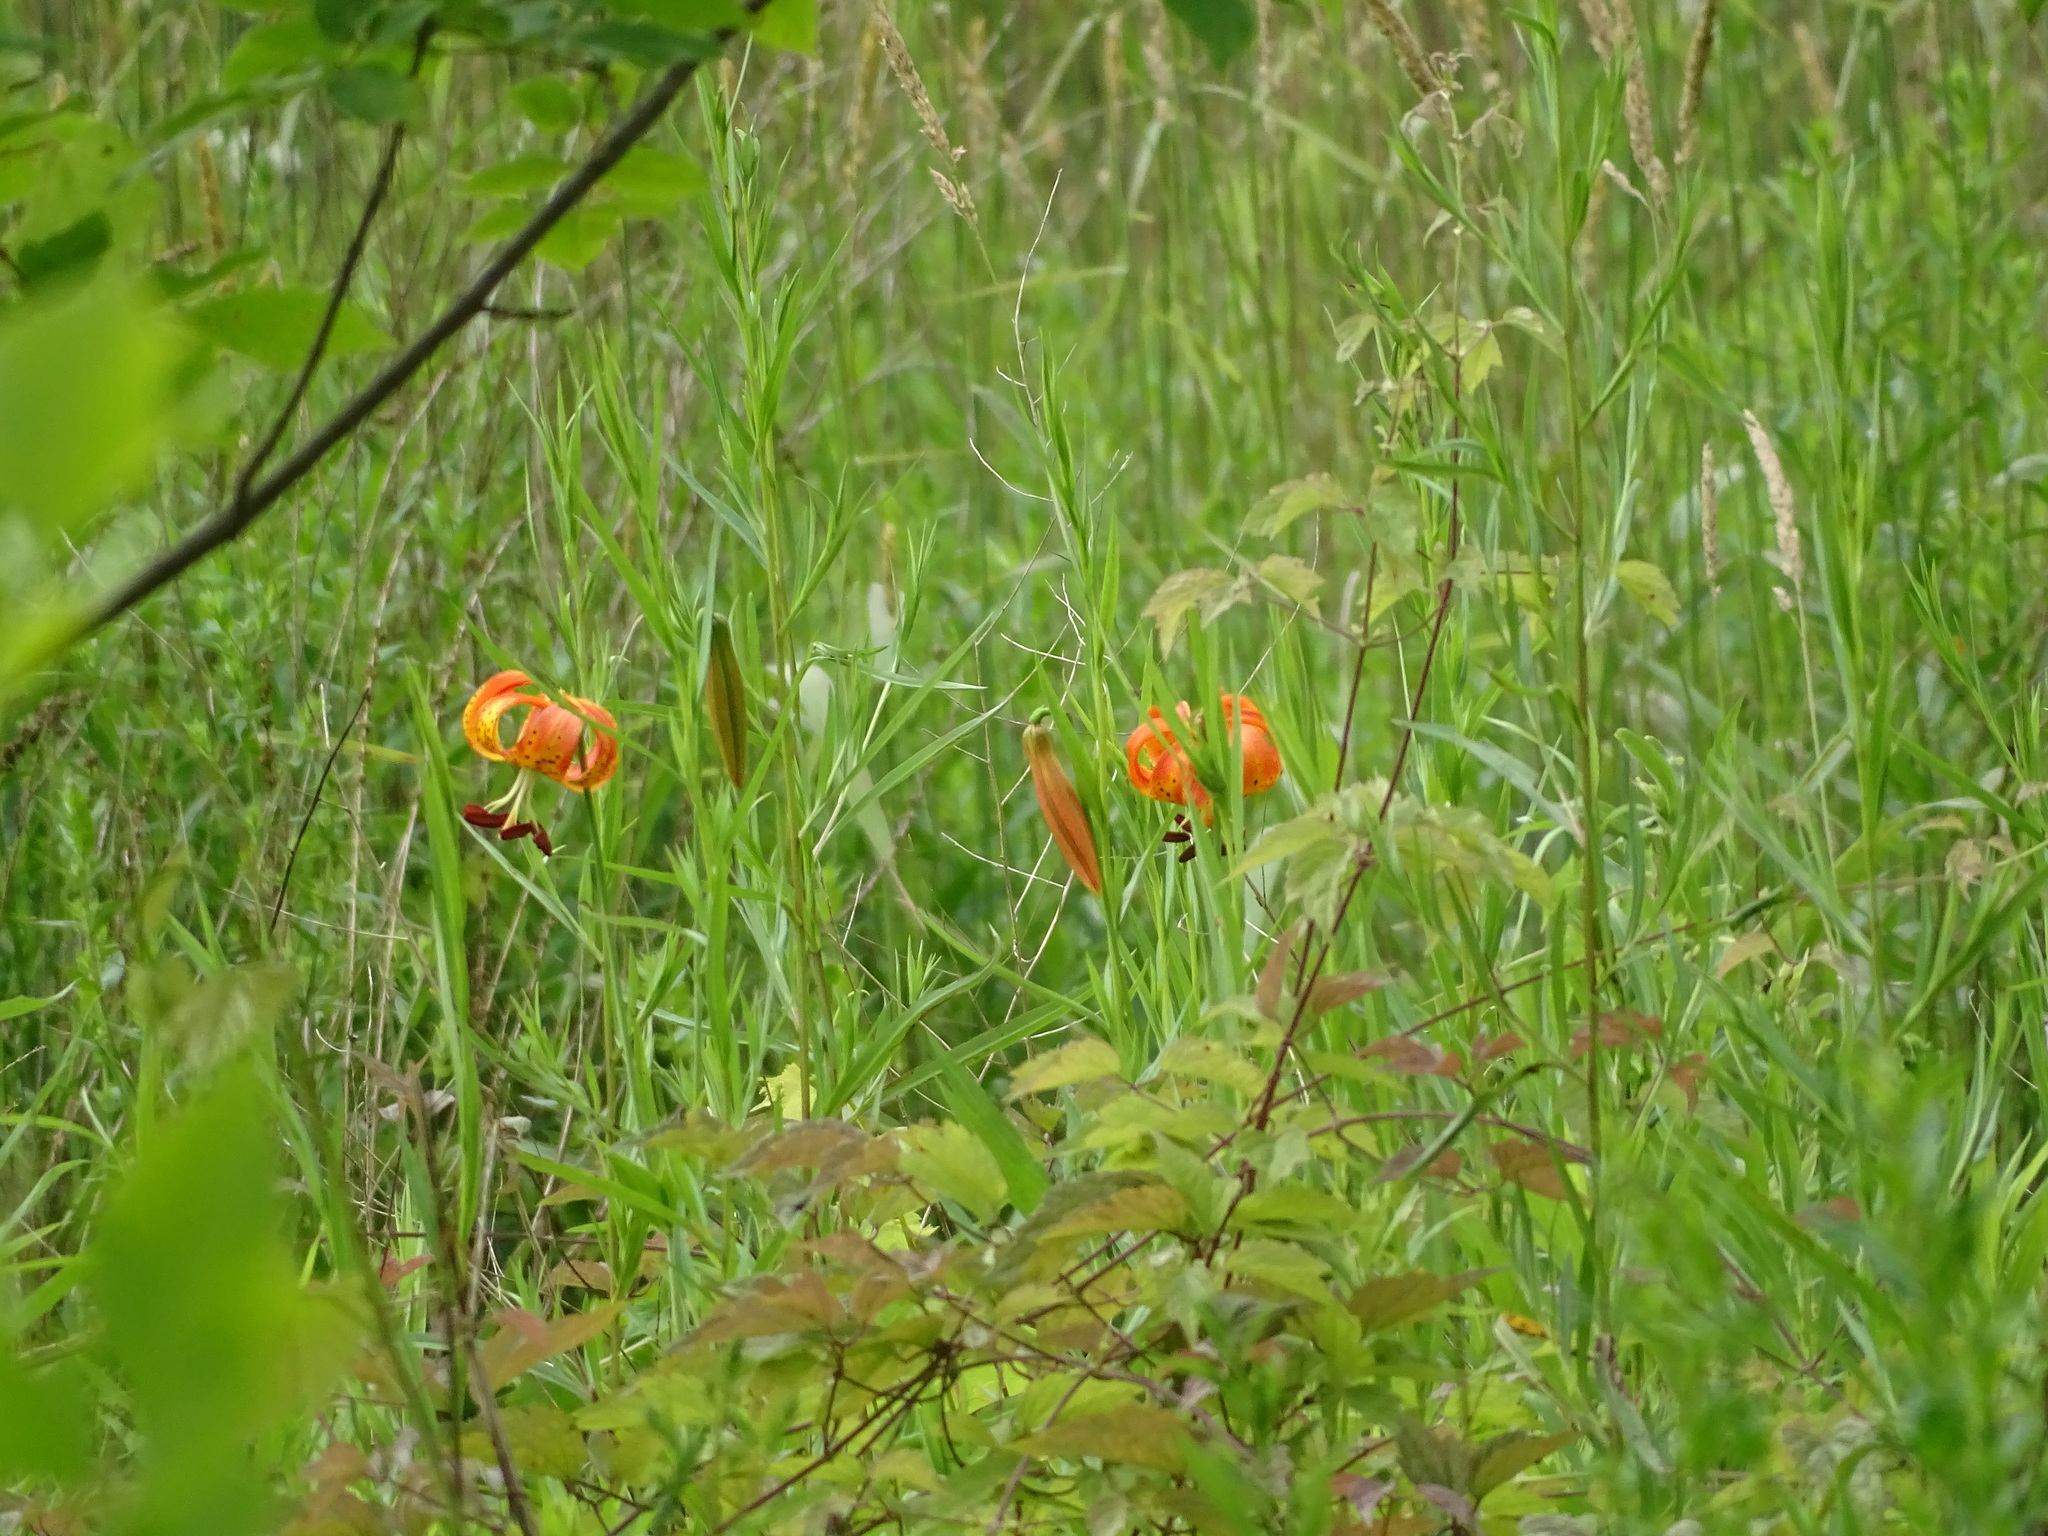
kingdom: Plantae
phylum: Tracheophyta
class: Liliopsida
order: Liliales
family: Liliaceae
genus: Lilium
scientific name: Lilium michiganense
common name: Michigan lily
